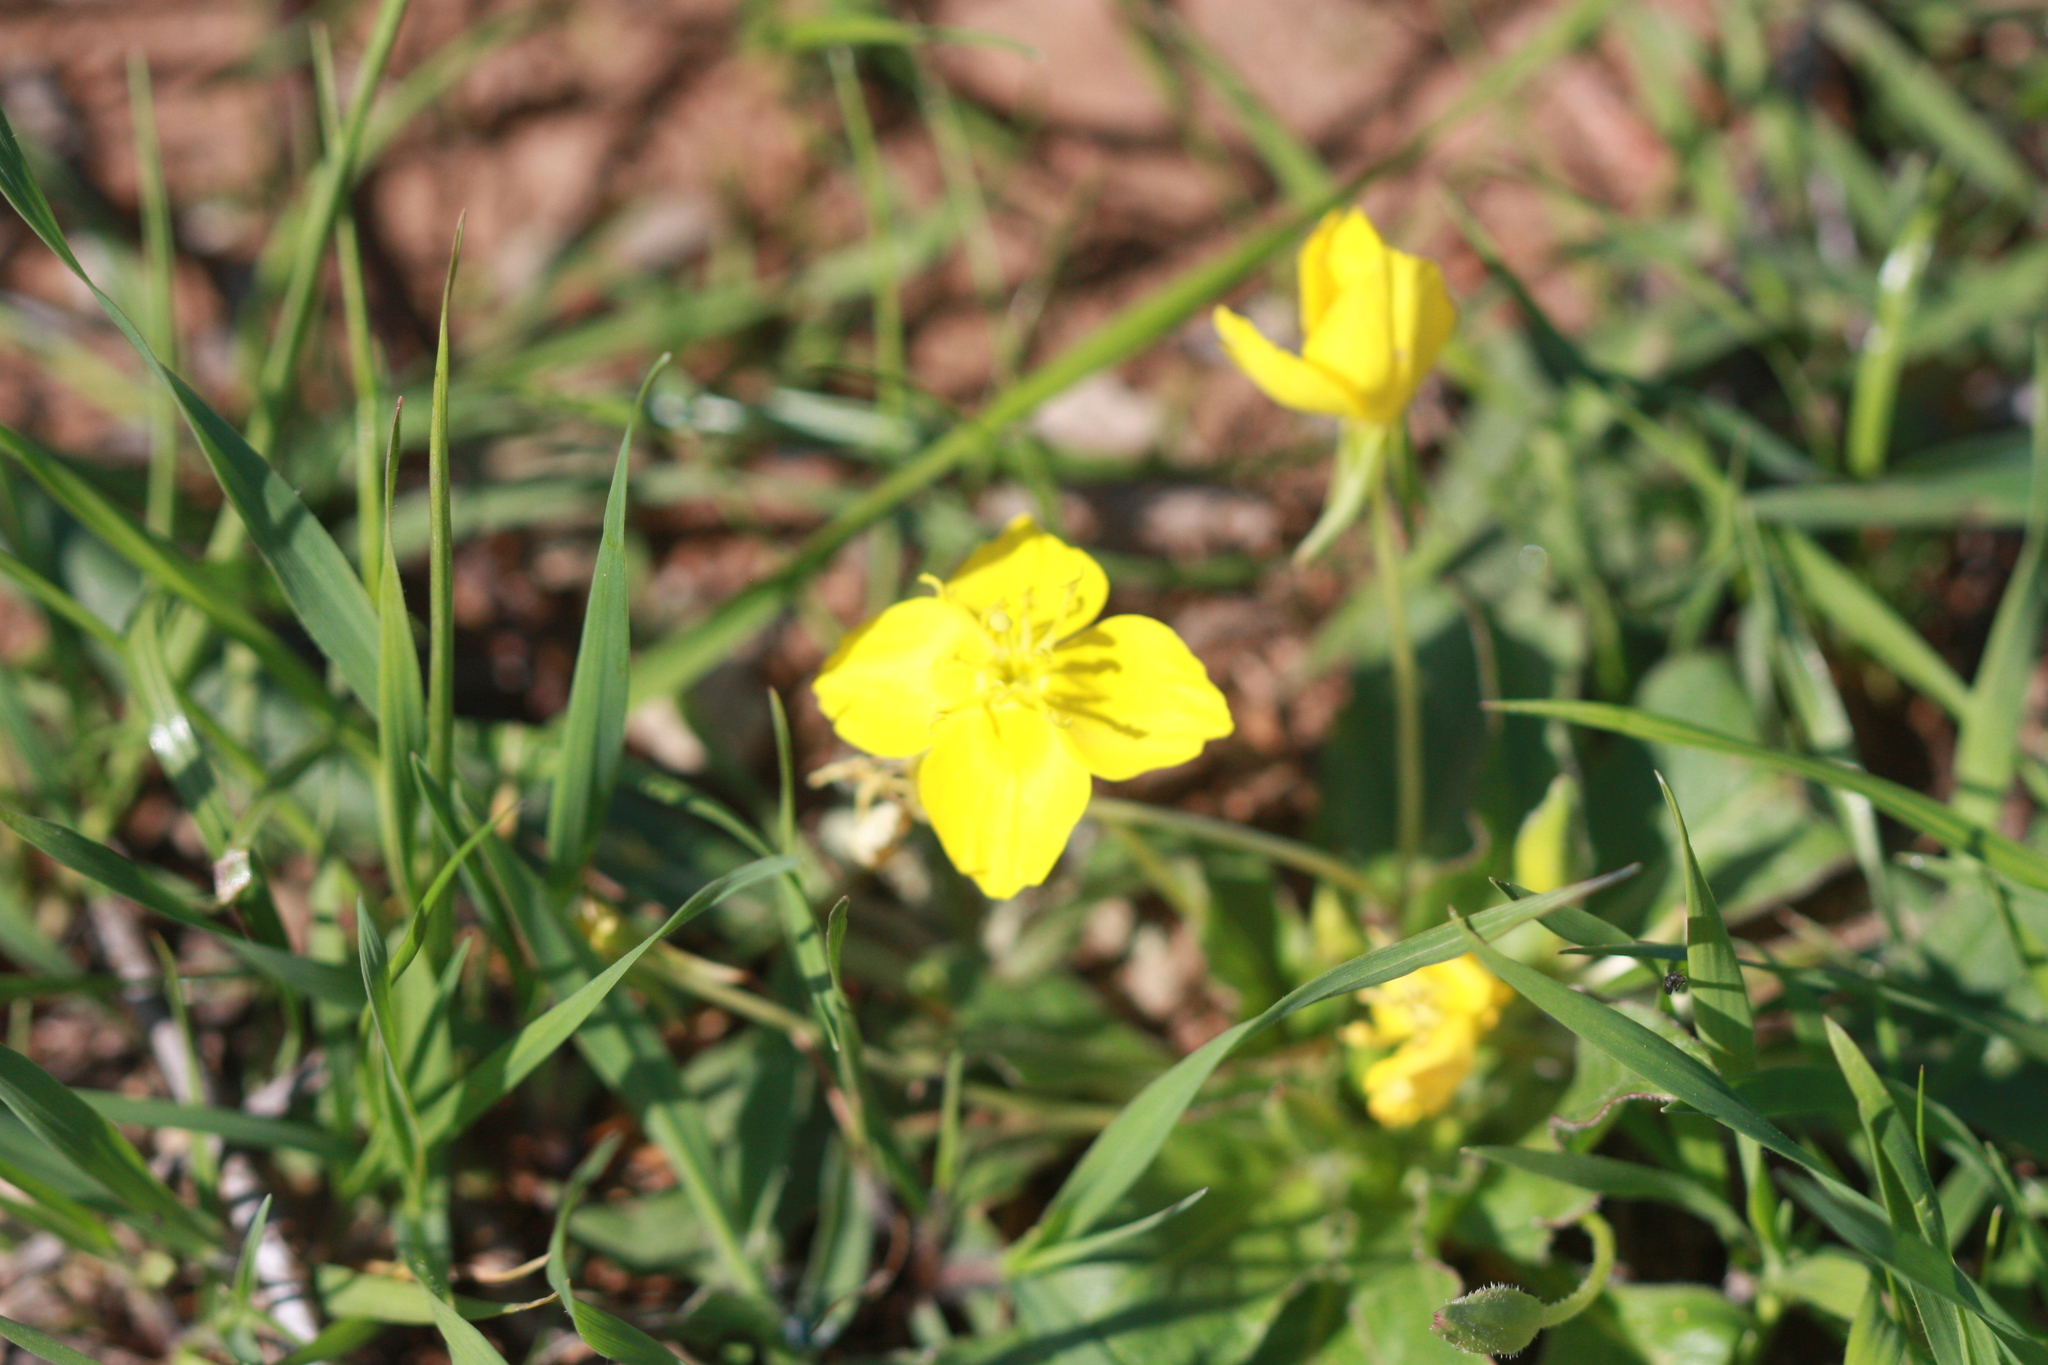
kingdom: Plantae
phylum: Tracheophyta
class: Magnoliopsida
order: Myrtales
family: Onagraceae
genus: Taraxia
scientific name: Taraxia ovata
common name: Goldeneggs
